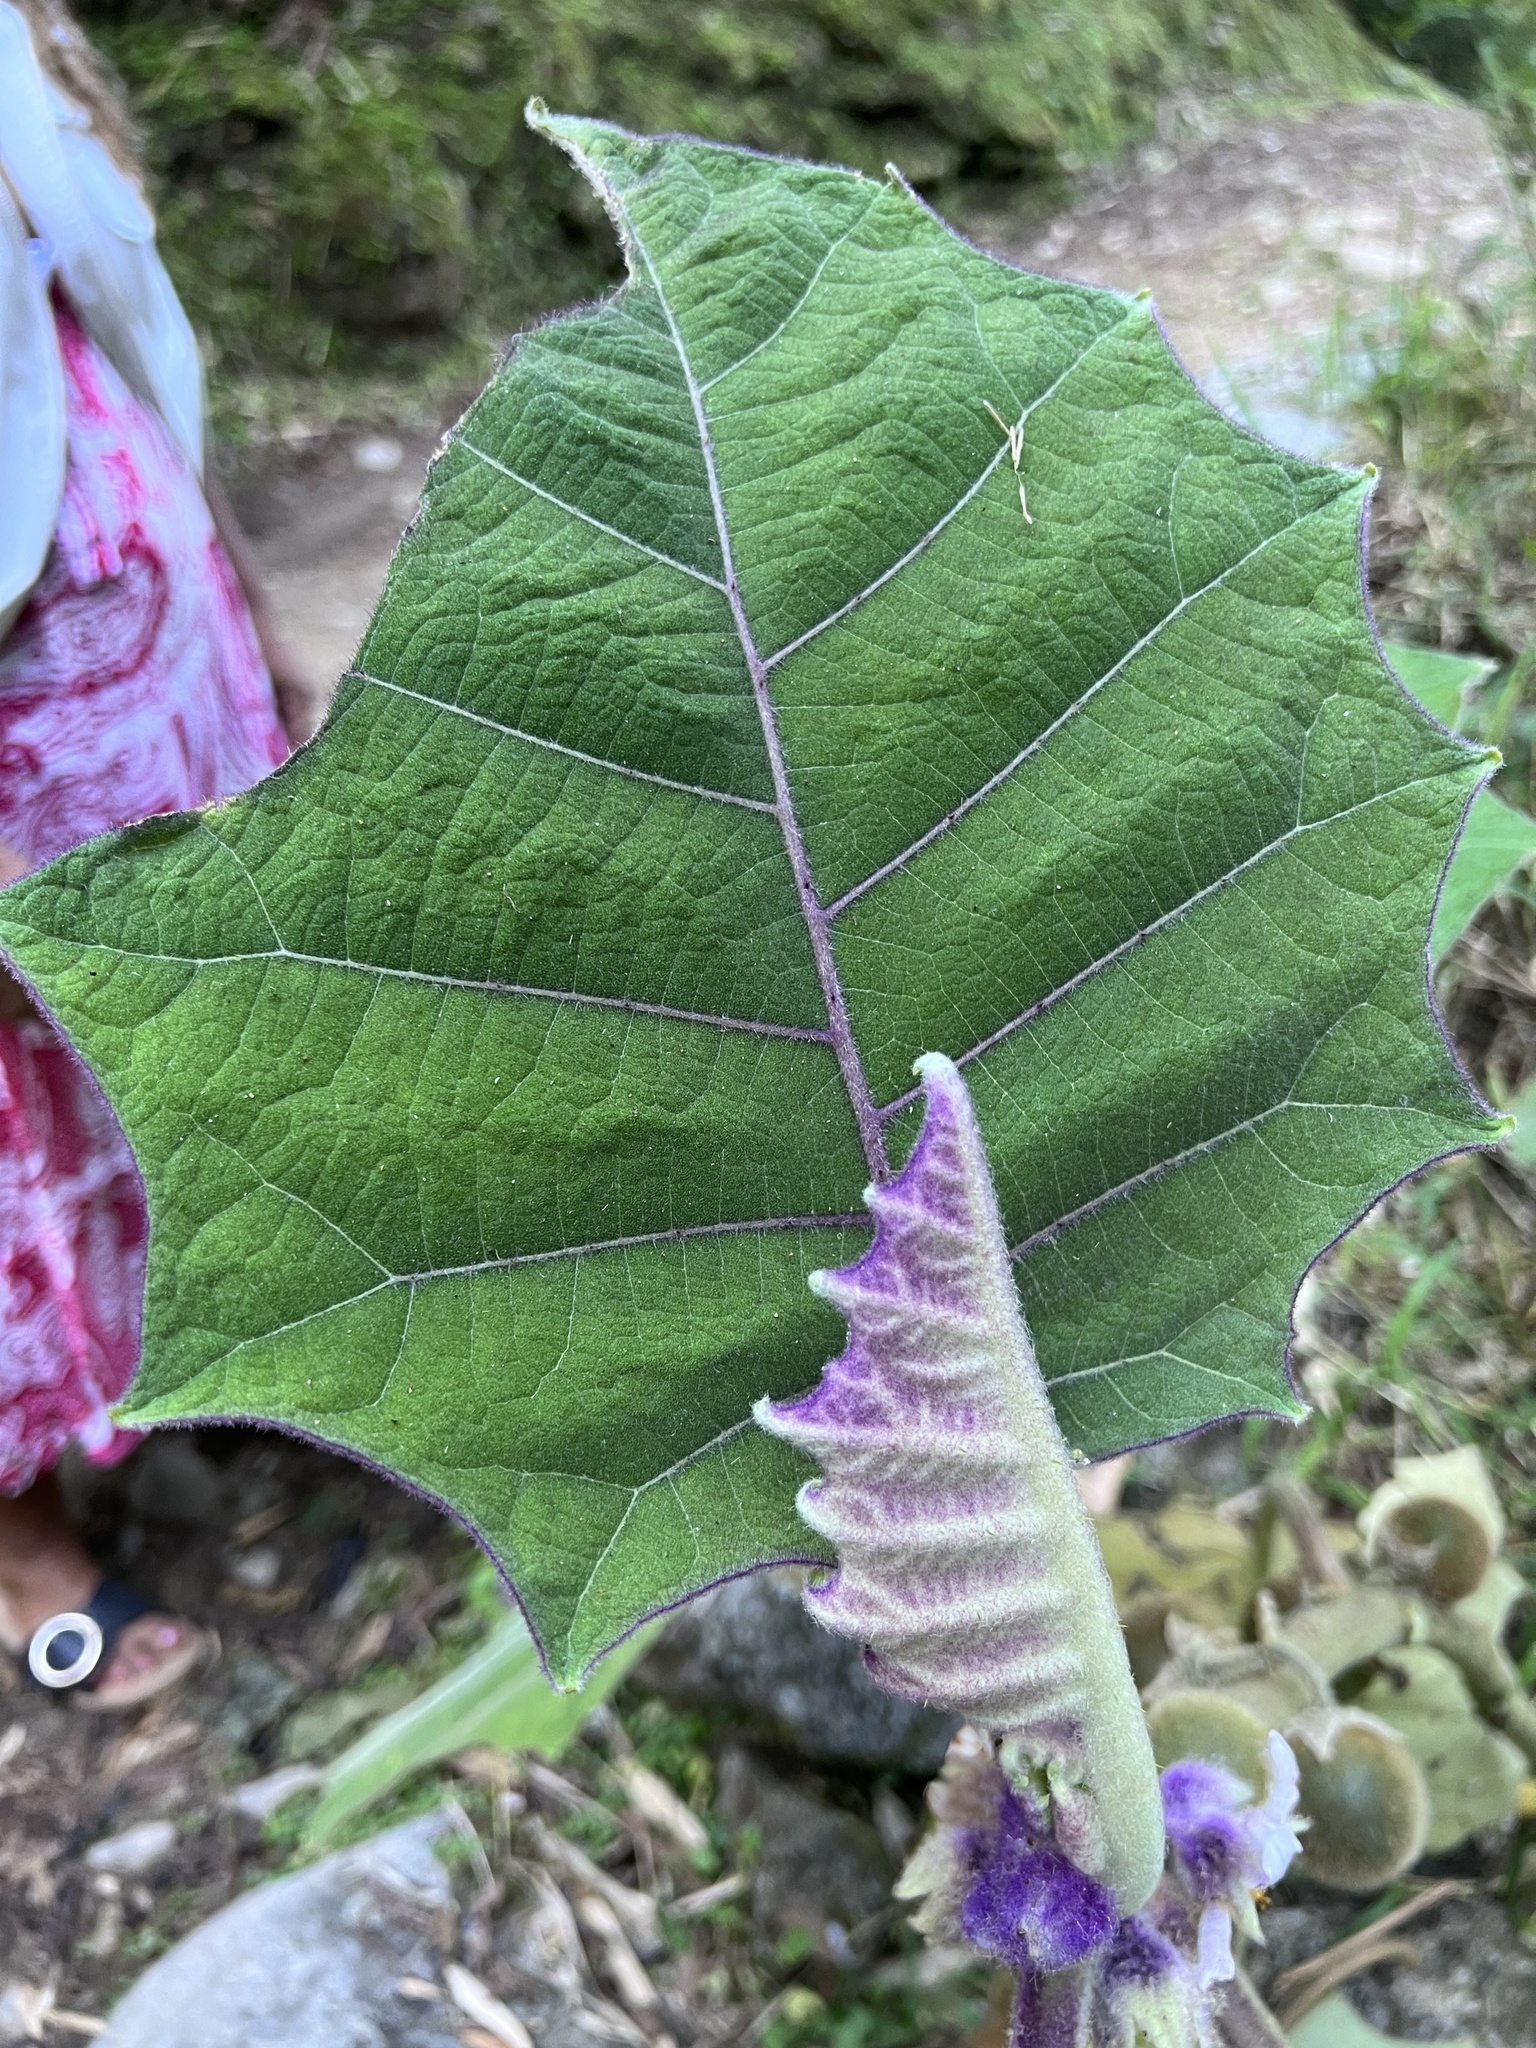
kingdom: Plantae
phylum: Tracheophyta
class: Magnoliopsida
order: Solanales
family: Solanaceae
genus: Solanum
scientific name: Solanum quitoense
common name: Quito-orange
